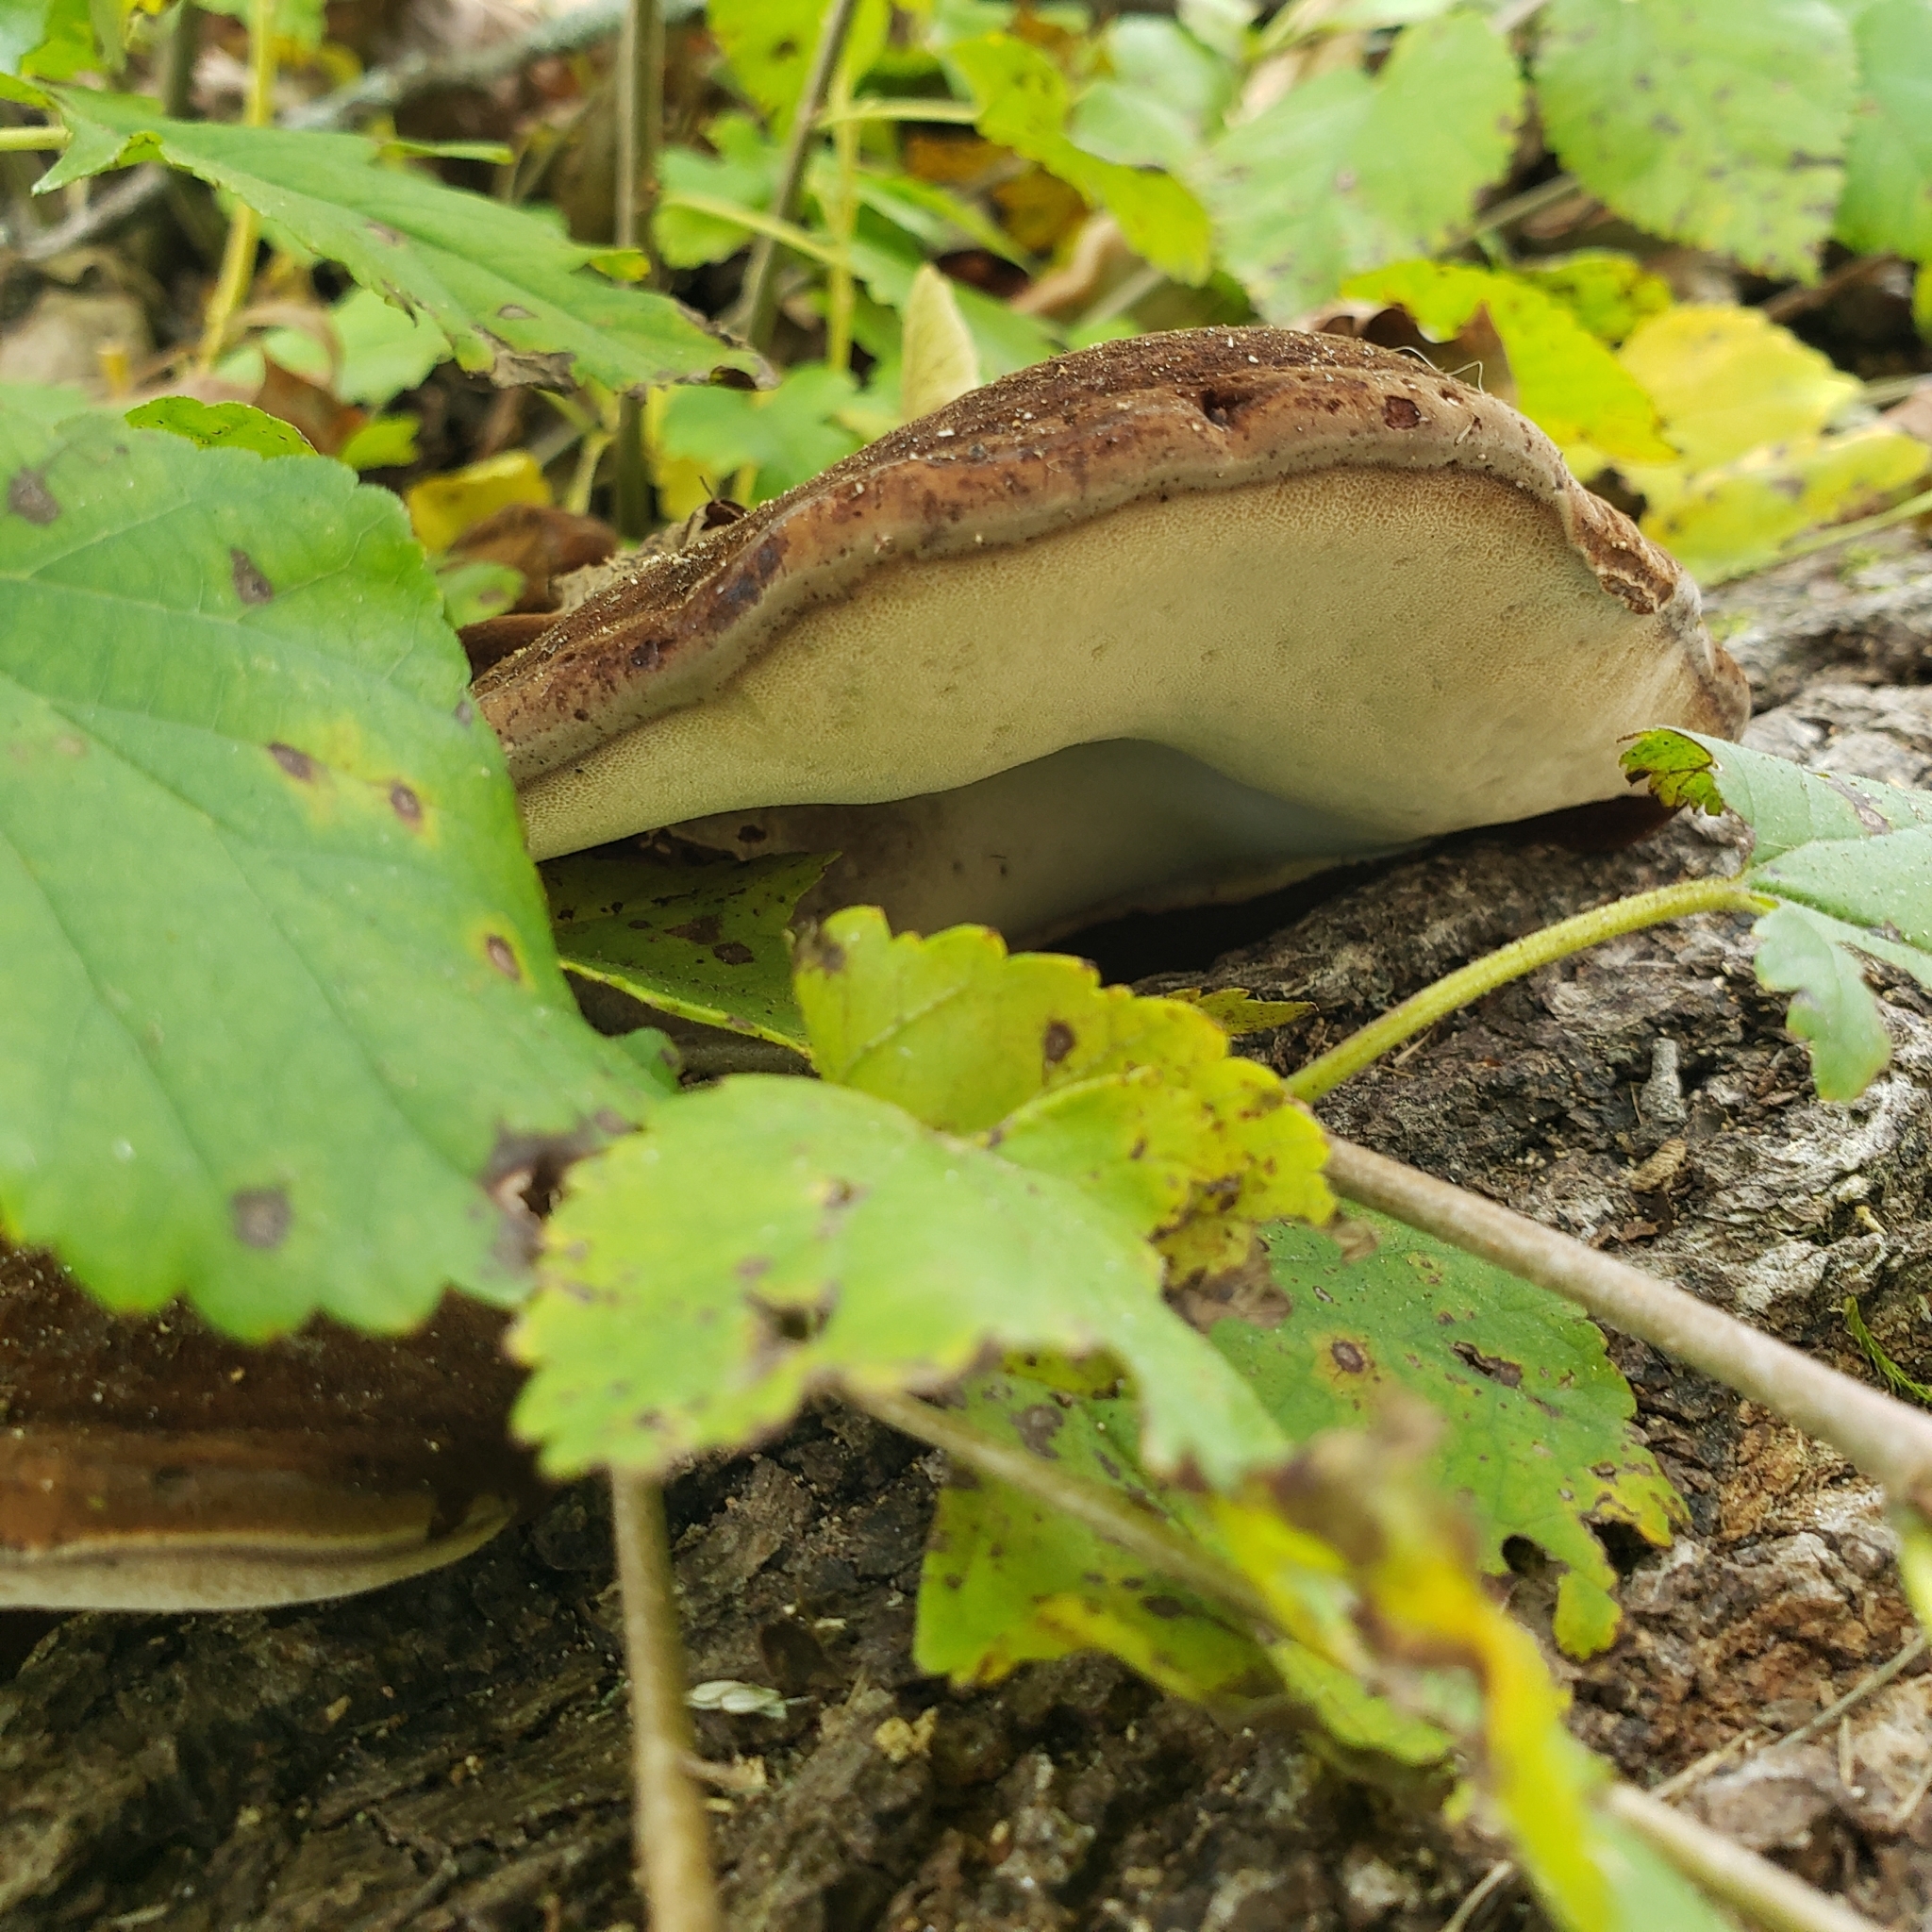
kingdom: Fungi
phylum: Basidiomycota
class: Agaricomycetes
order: Polyporales
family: Ischnodermataceae
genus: Ischnoderma
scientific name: Ischnoderma resinosum
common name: Resinous polypore
